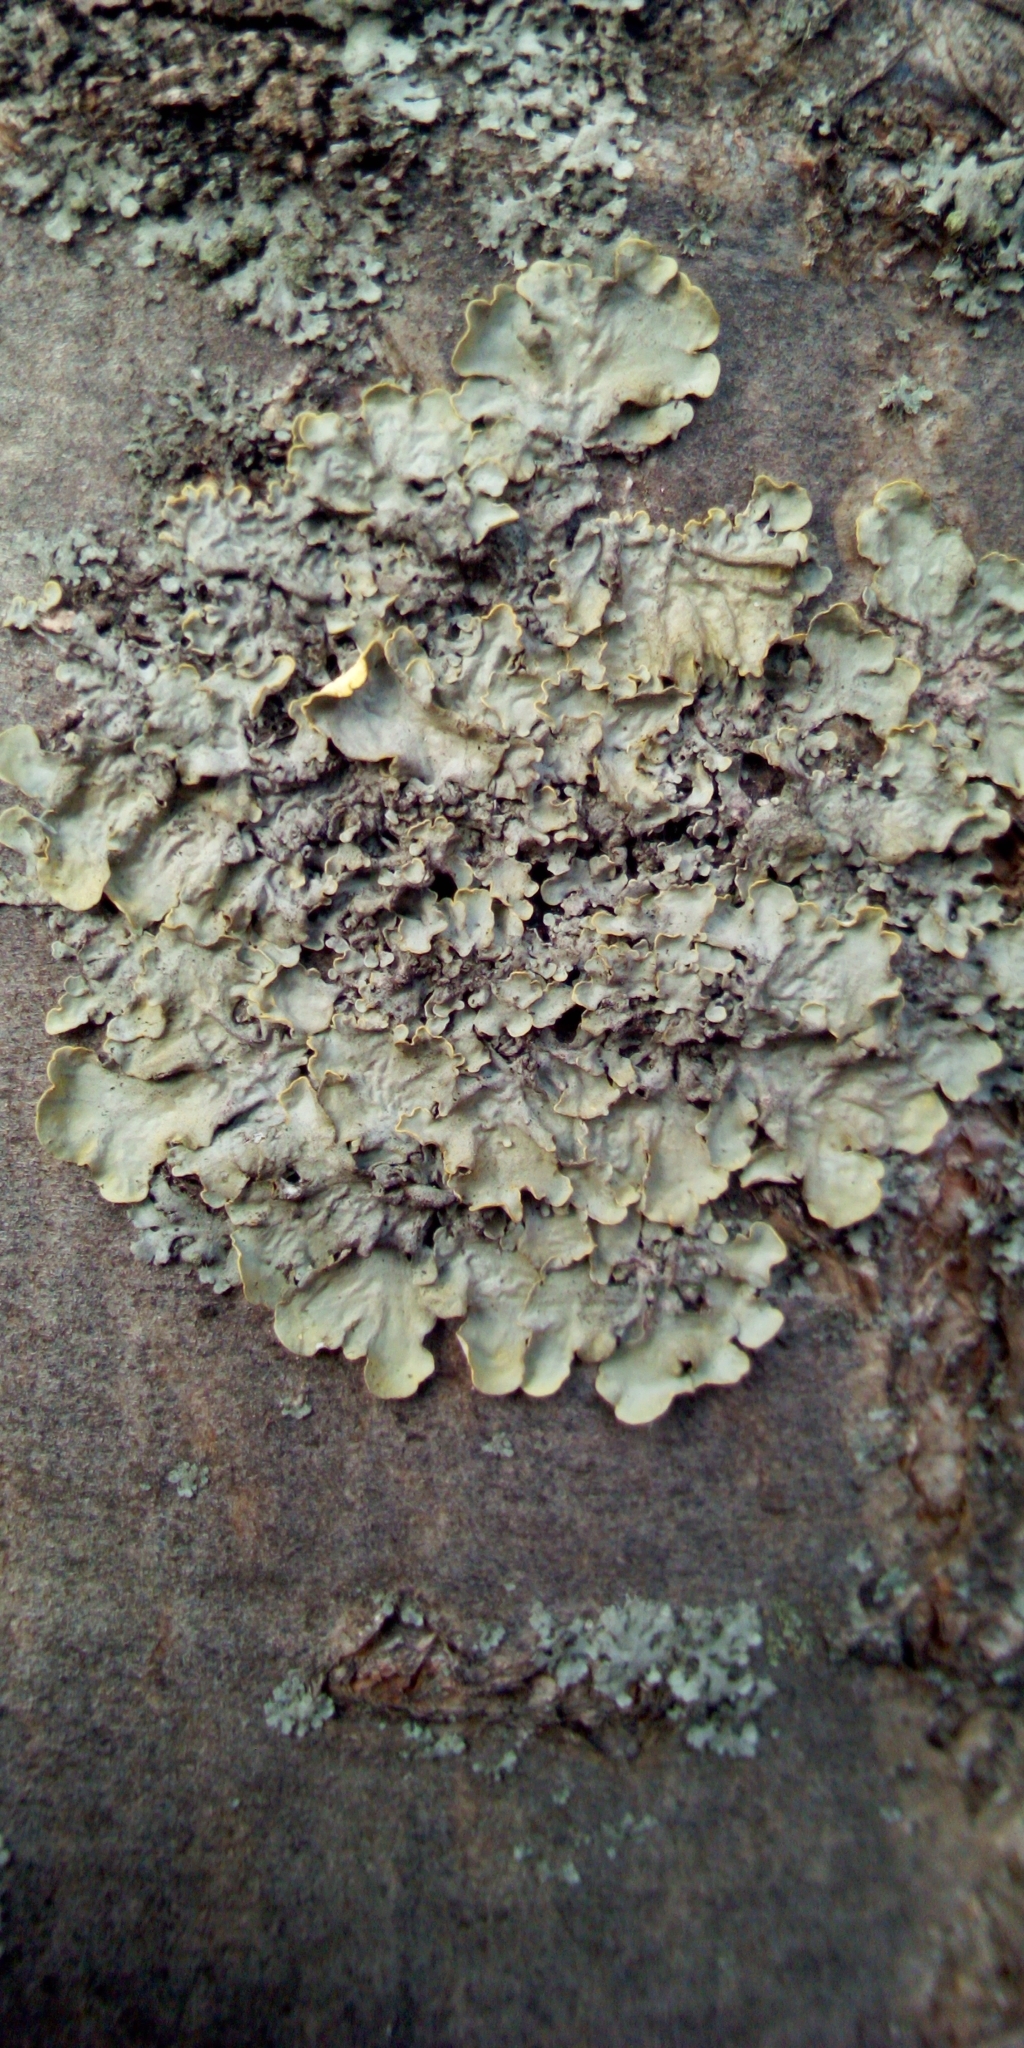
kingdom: Fungi
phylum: Ascomycota
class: Lecanoromycetes
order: Teloschistales
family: Teloschistaceae
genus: Xanthoria
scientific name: Xanthoria parietina
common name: Common orange lichen
